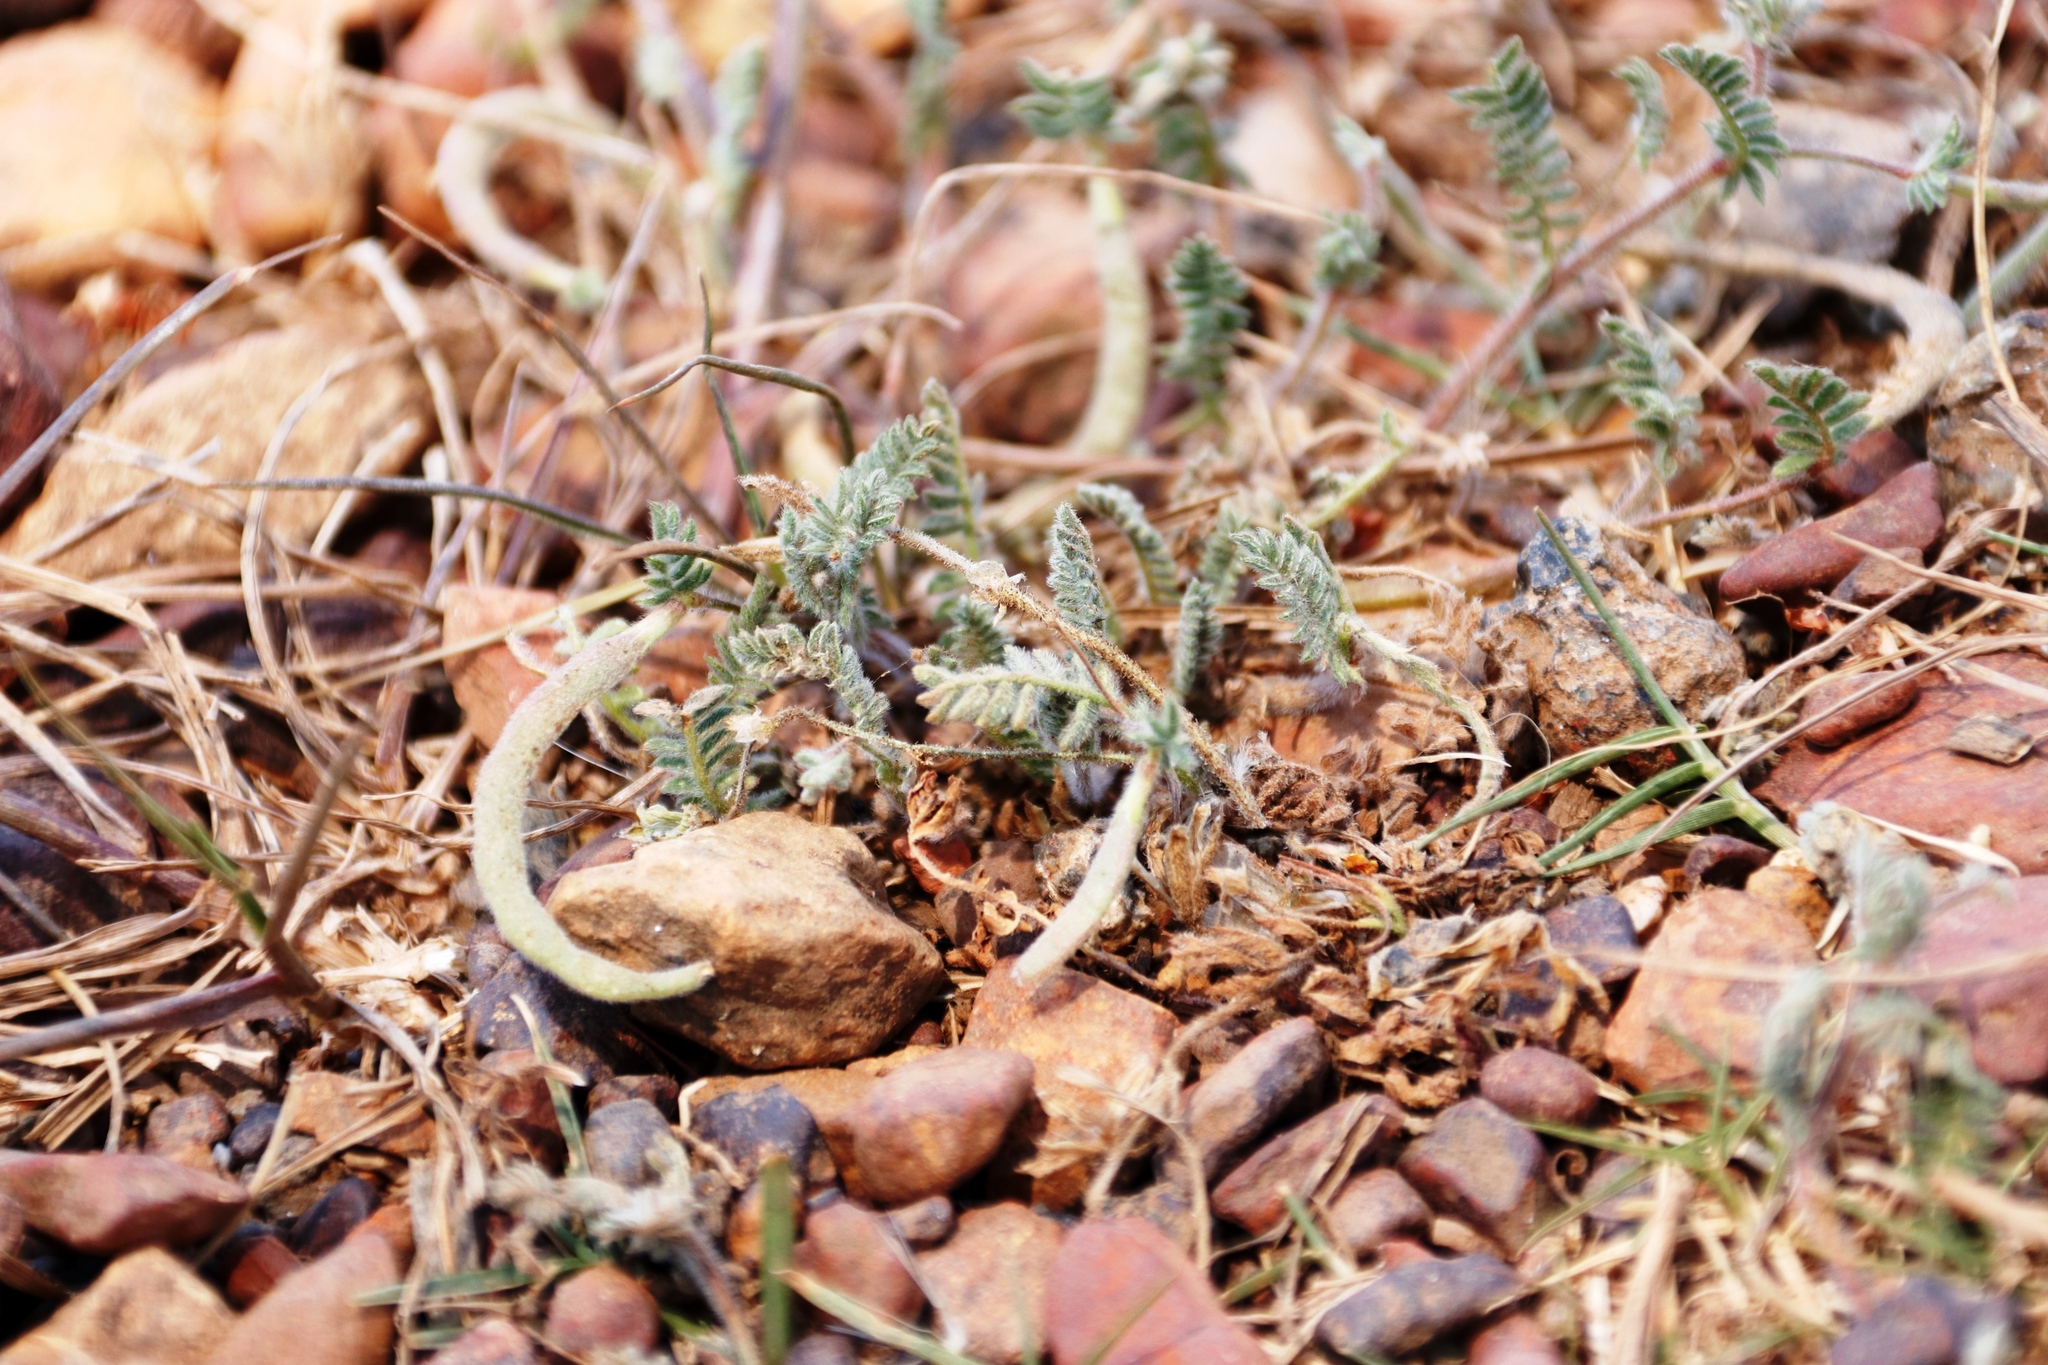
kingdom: Plantae
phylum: Tracheophyta
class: Magnoliopsida
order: Fabales
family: Fabaceae
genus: Ornithopus
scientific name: Ornithopus compressus
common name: Yellow serradella
